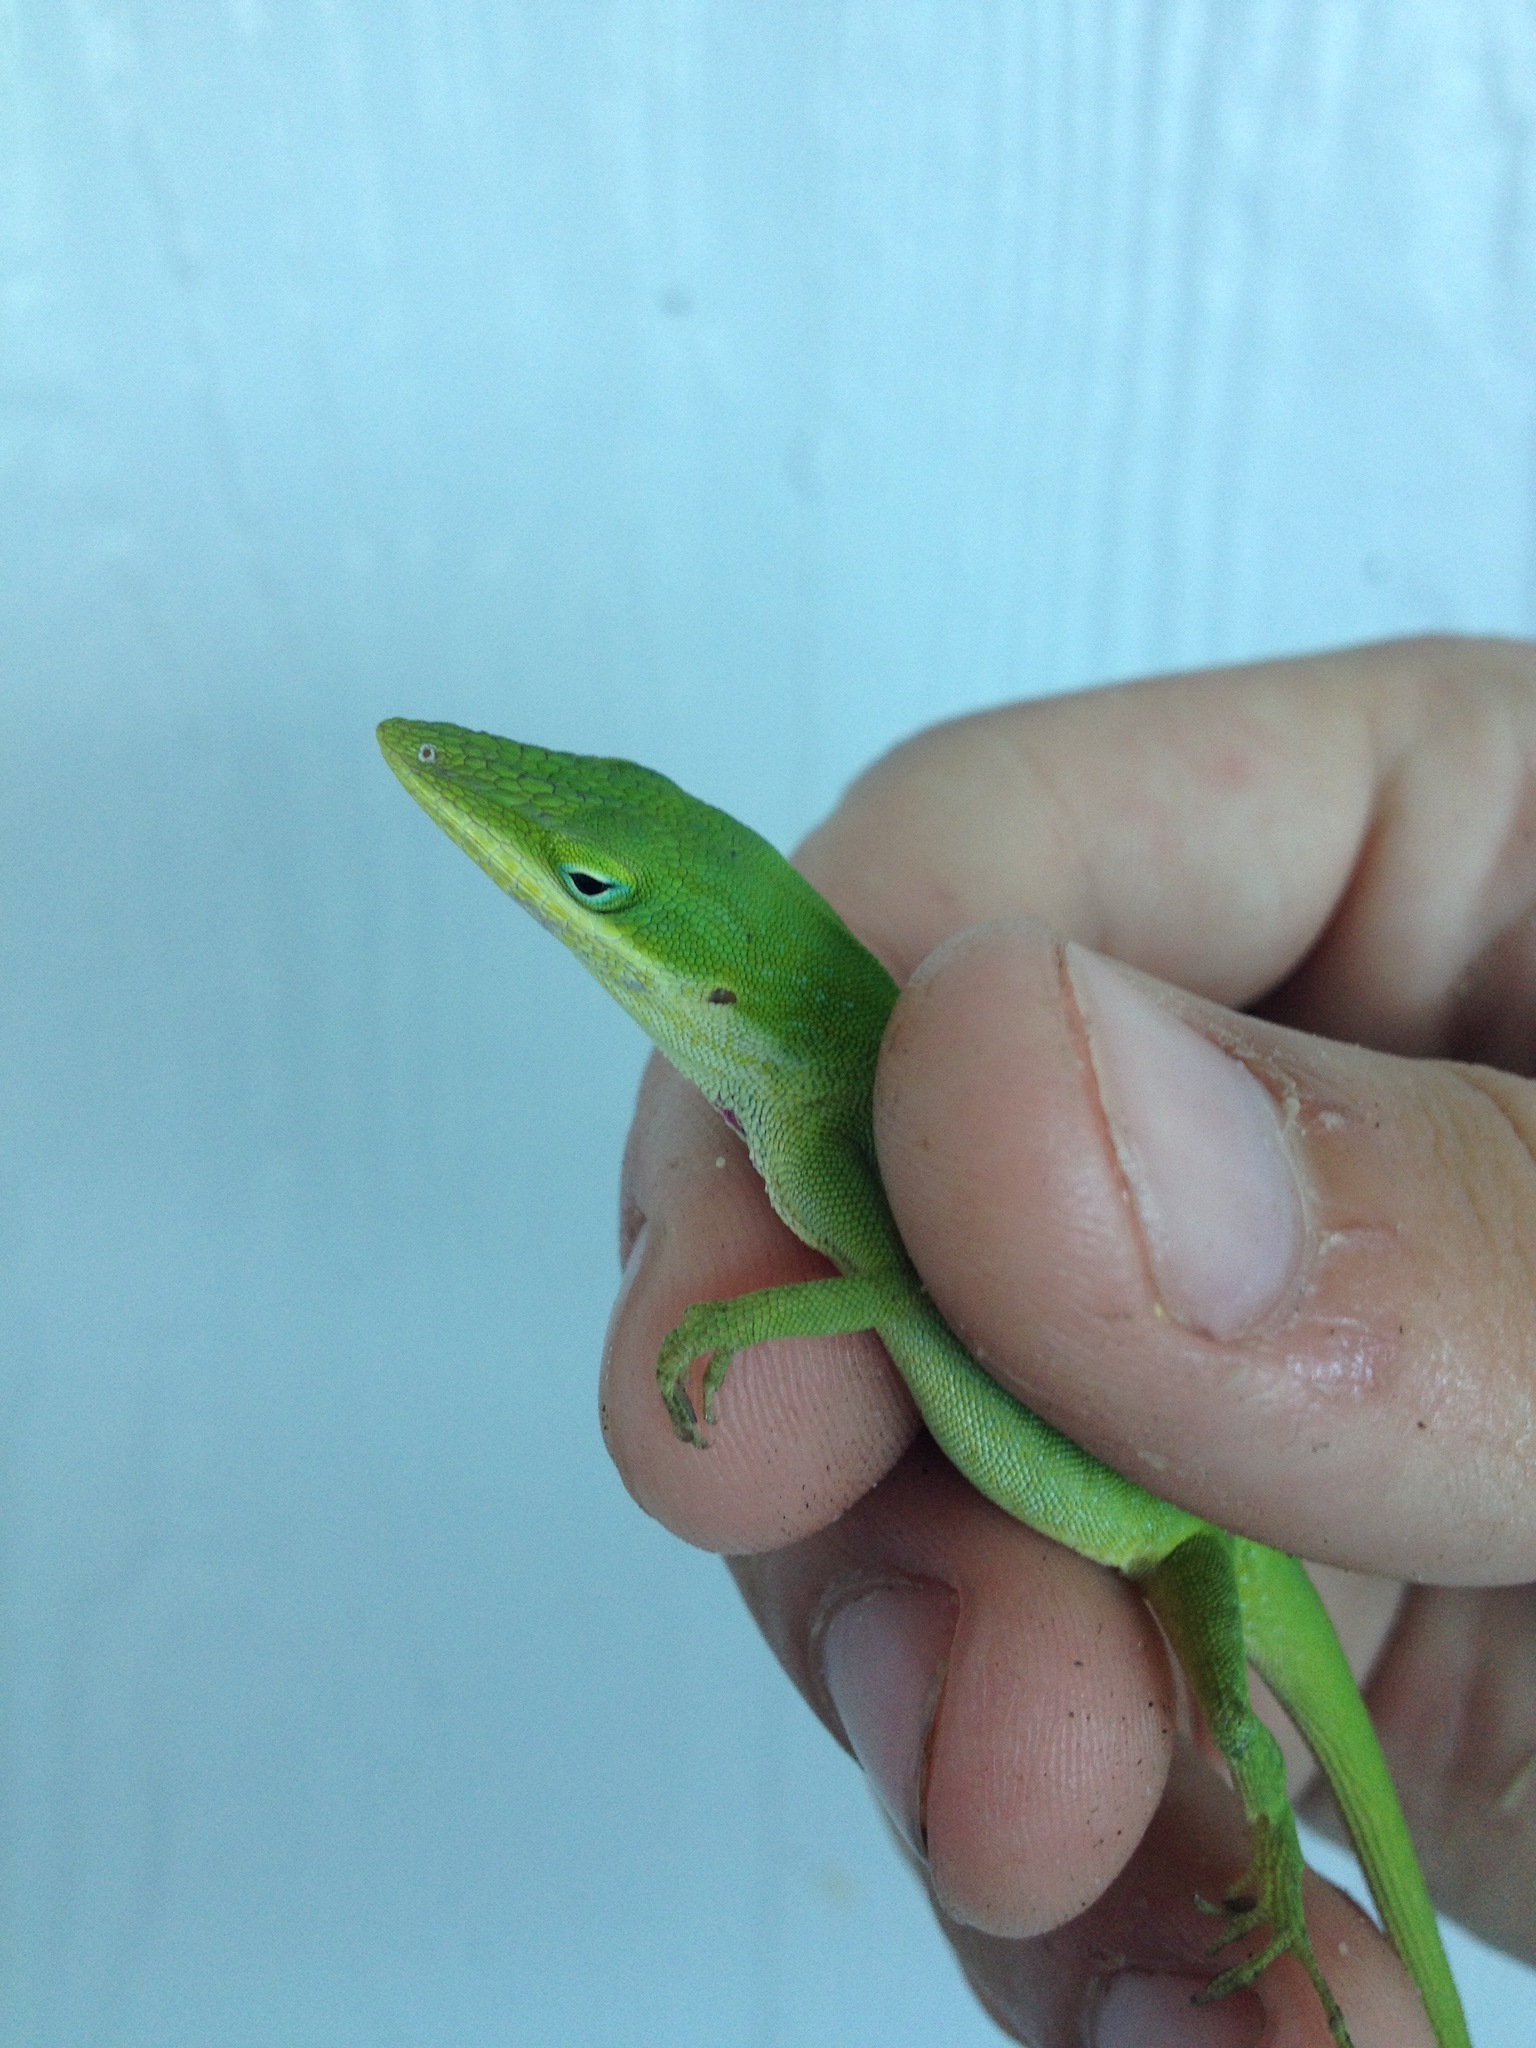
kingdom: Animalia
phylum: Chordata
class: Squamata
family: Dactyloidae
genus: Anolis
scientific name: Anolis carolinensis
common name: Green anole
